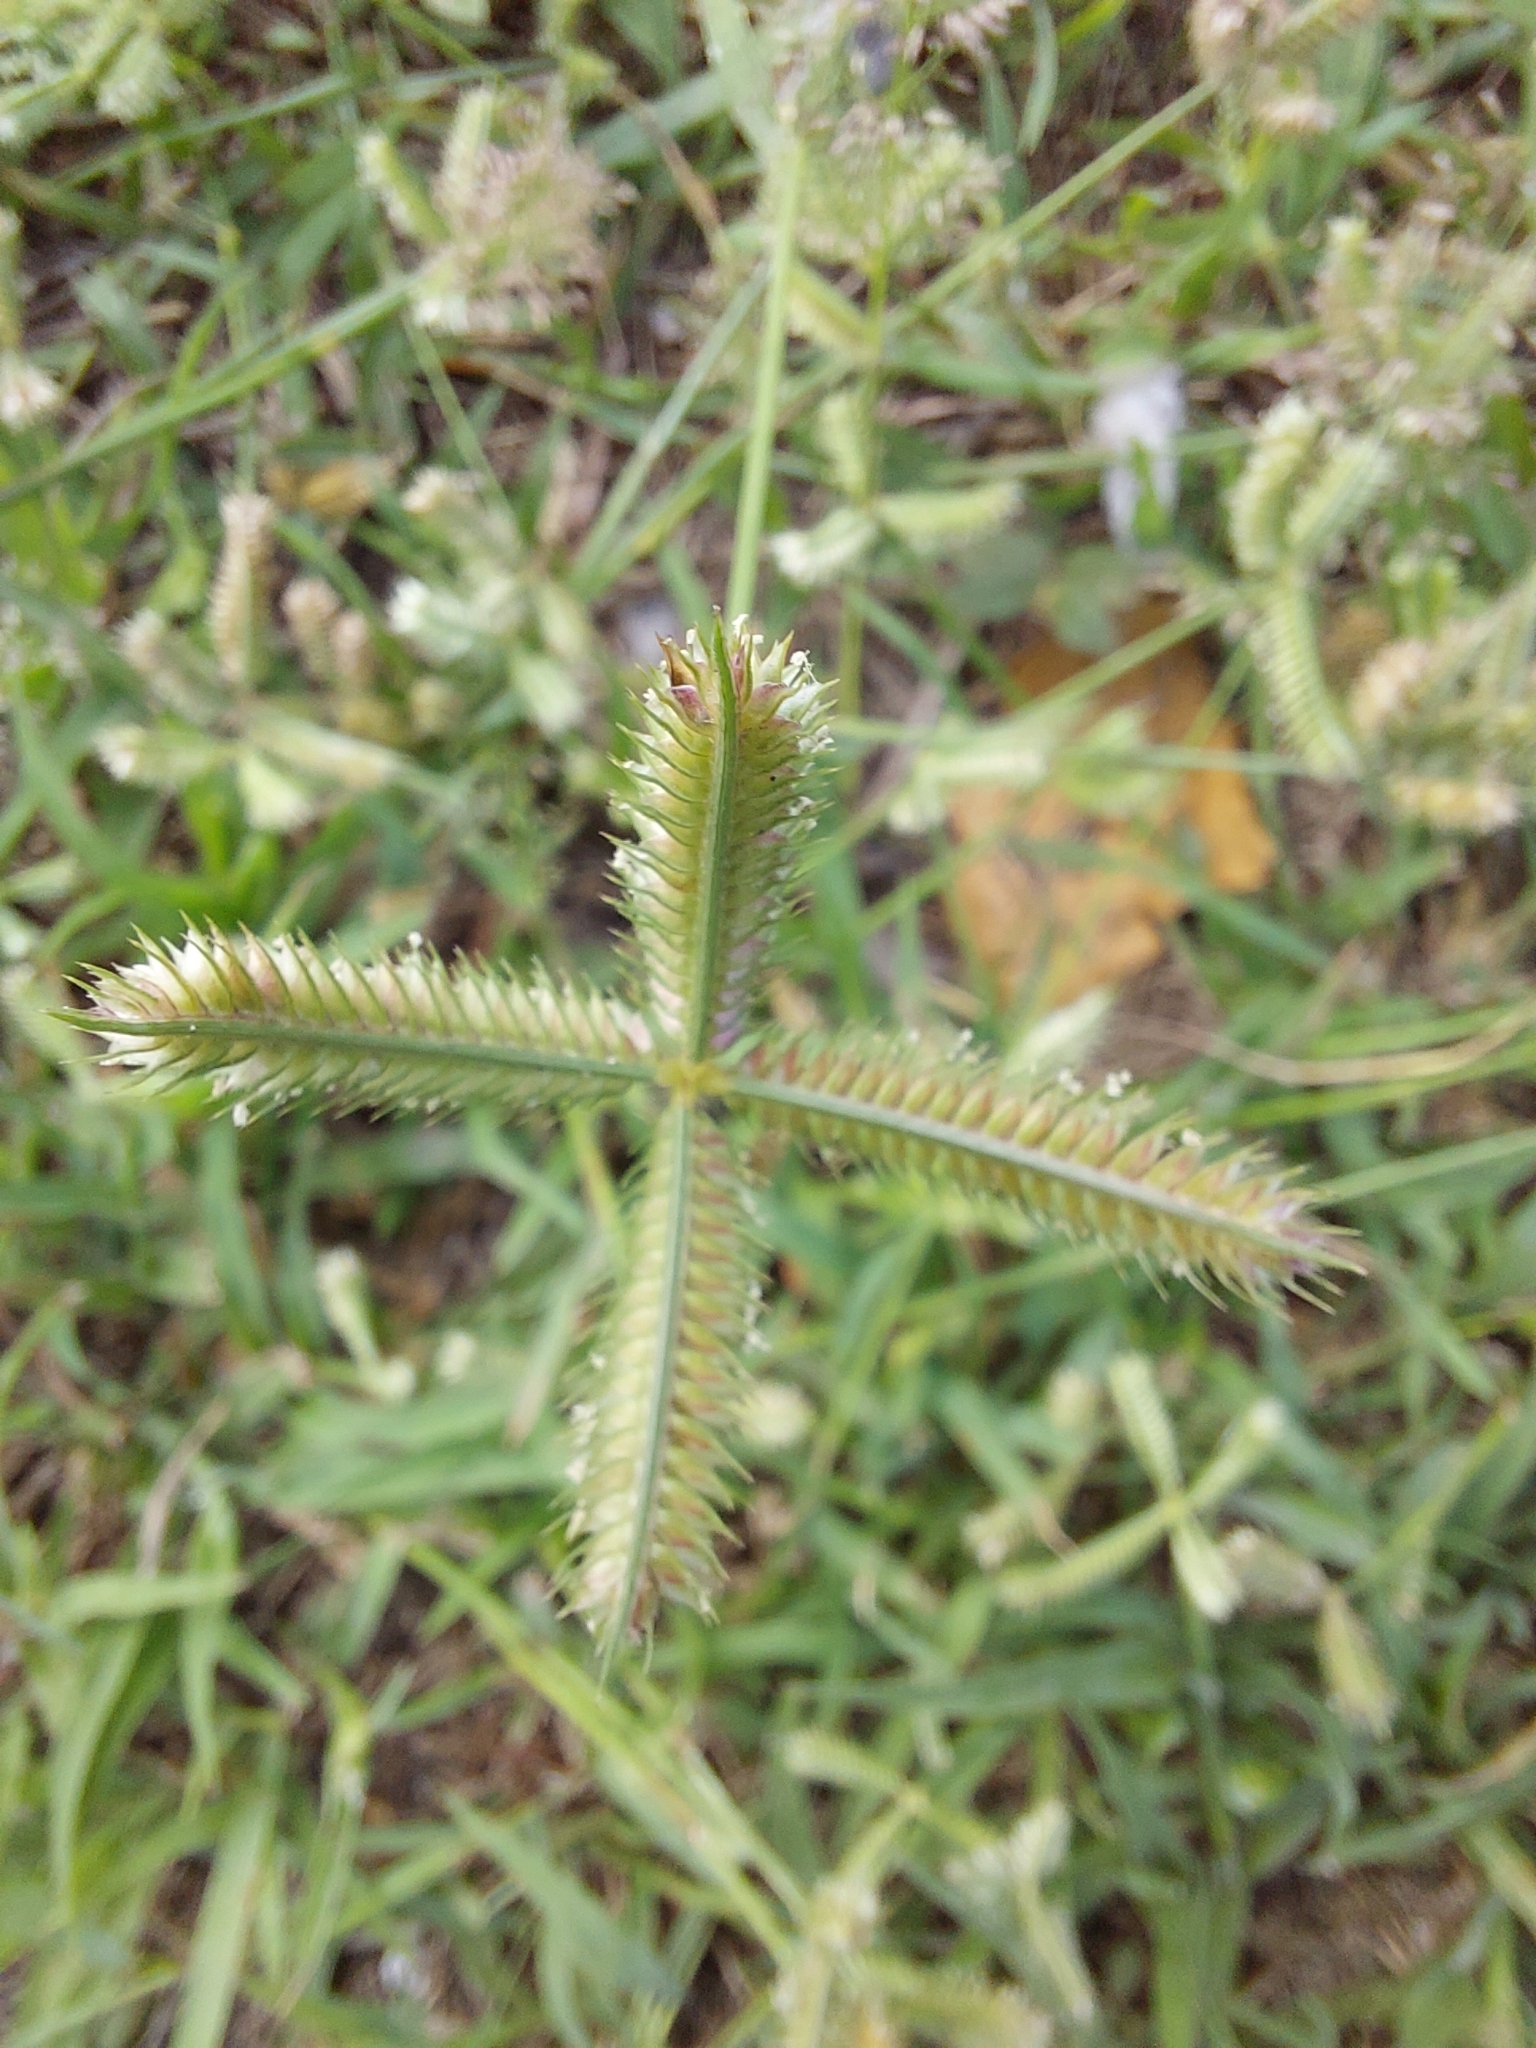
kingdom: Plantae
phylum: Tracheophyta
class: Liliopsida
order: Poales
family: Poaceae
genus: Dactyloctenium
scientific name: Dactyloctenium aegyptium
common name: Egyptian grass
